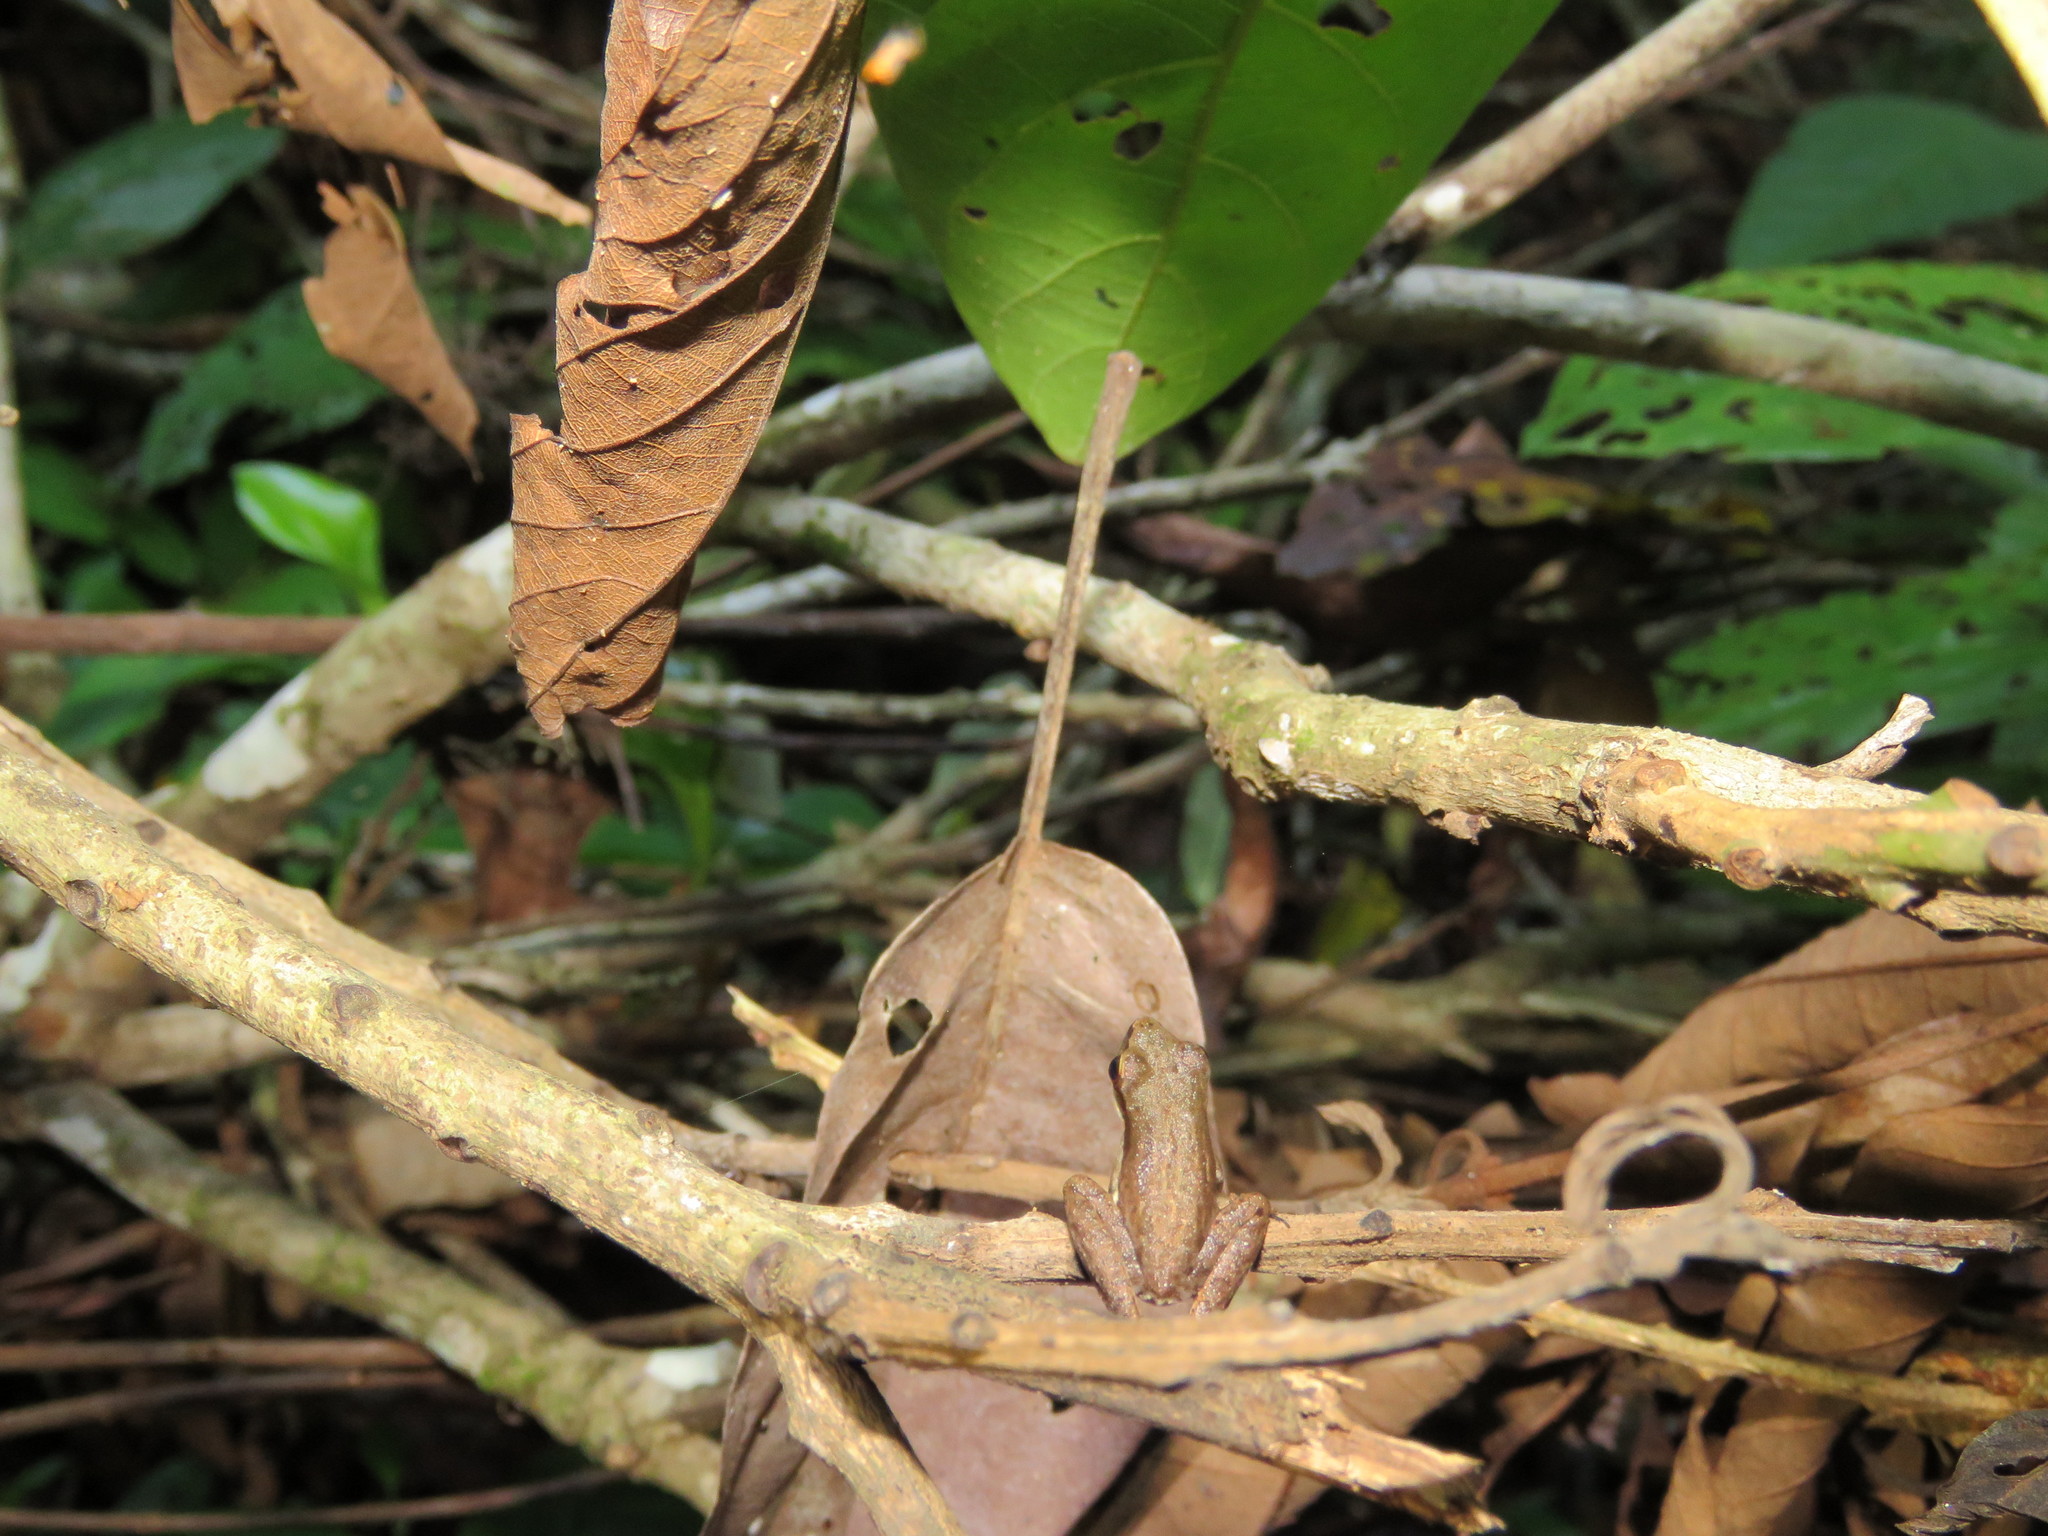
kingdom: Animalia
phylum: Chordata
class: Amphibia
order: Anura
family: Hylidae
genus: Scarthyla
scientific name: Scarthyla goinorum
